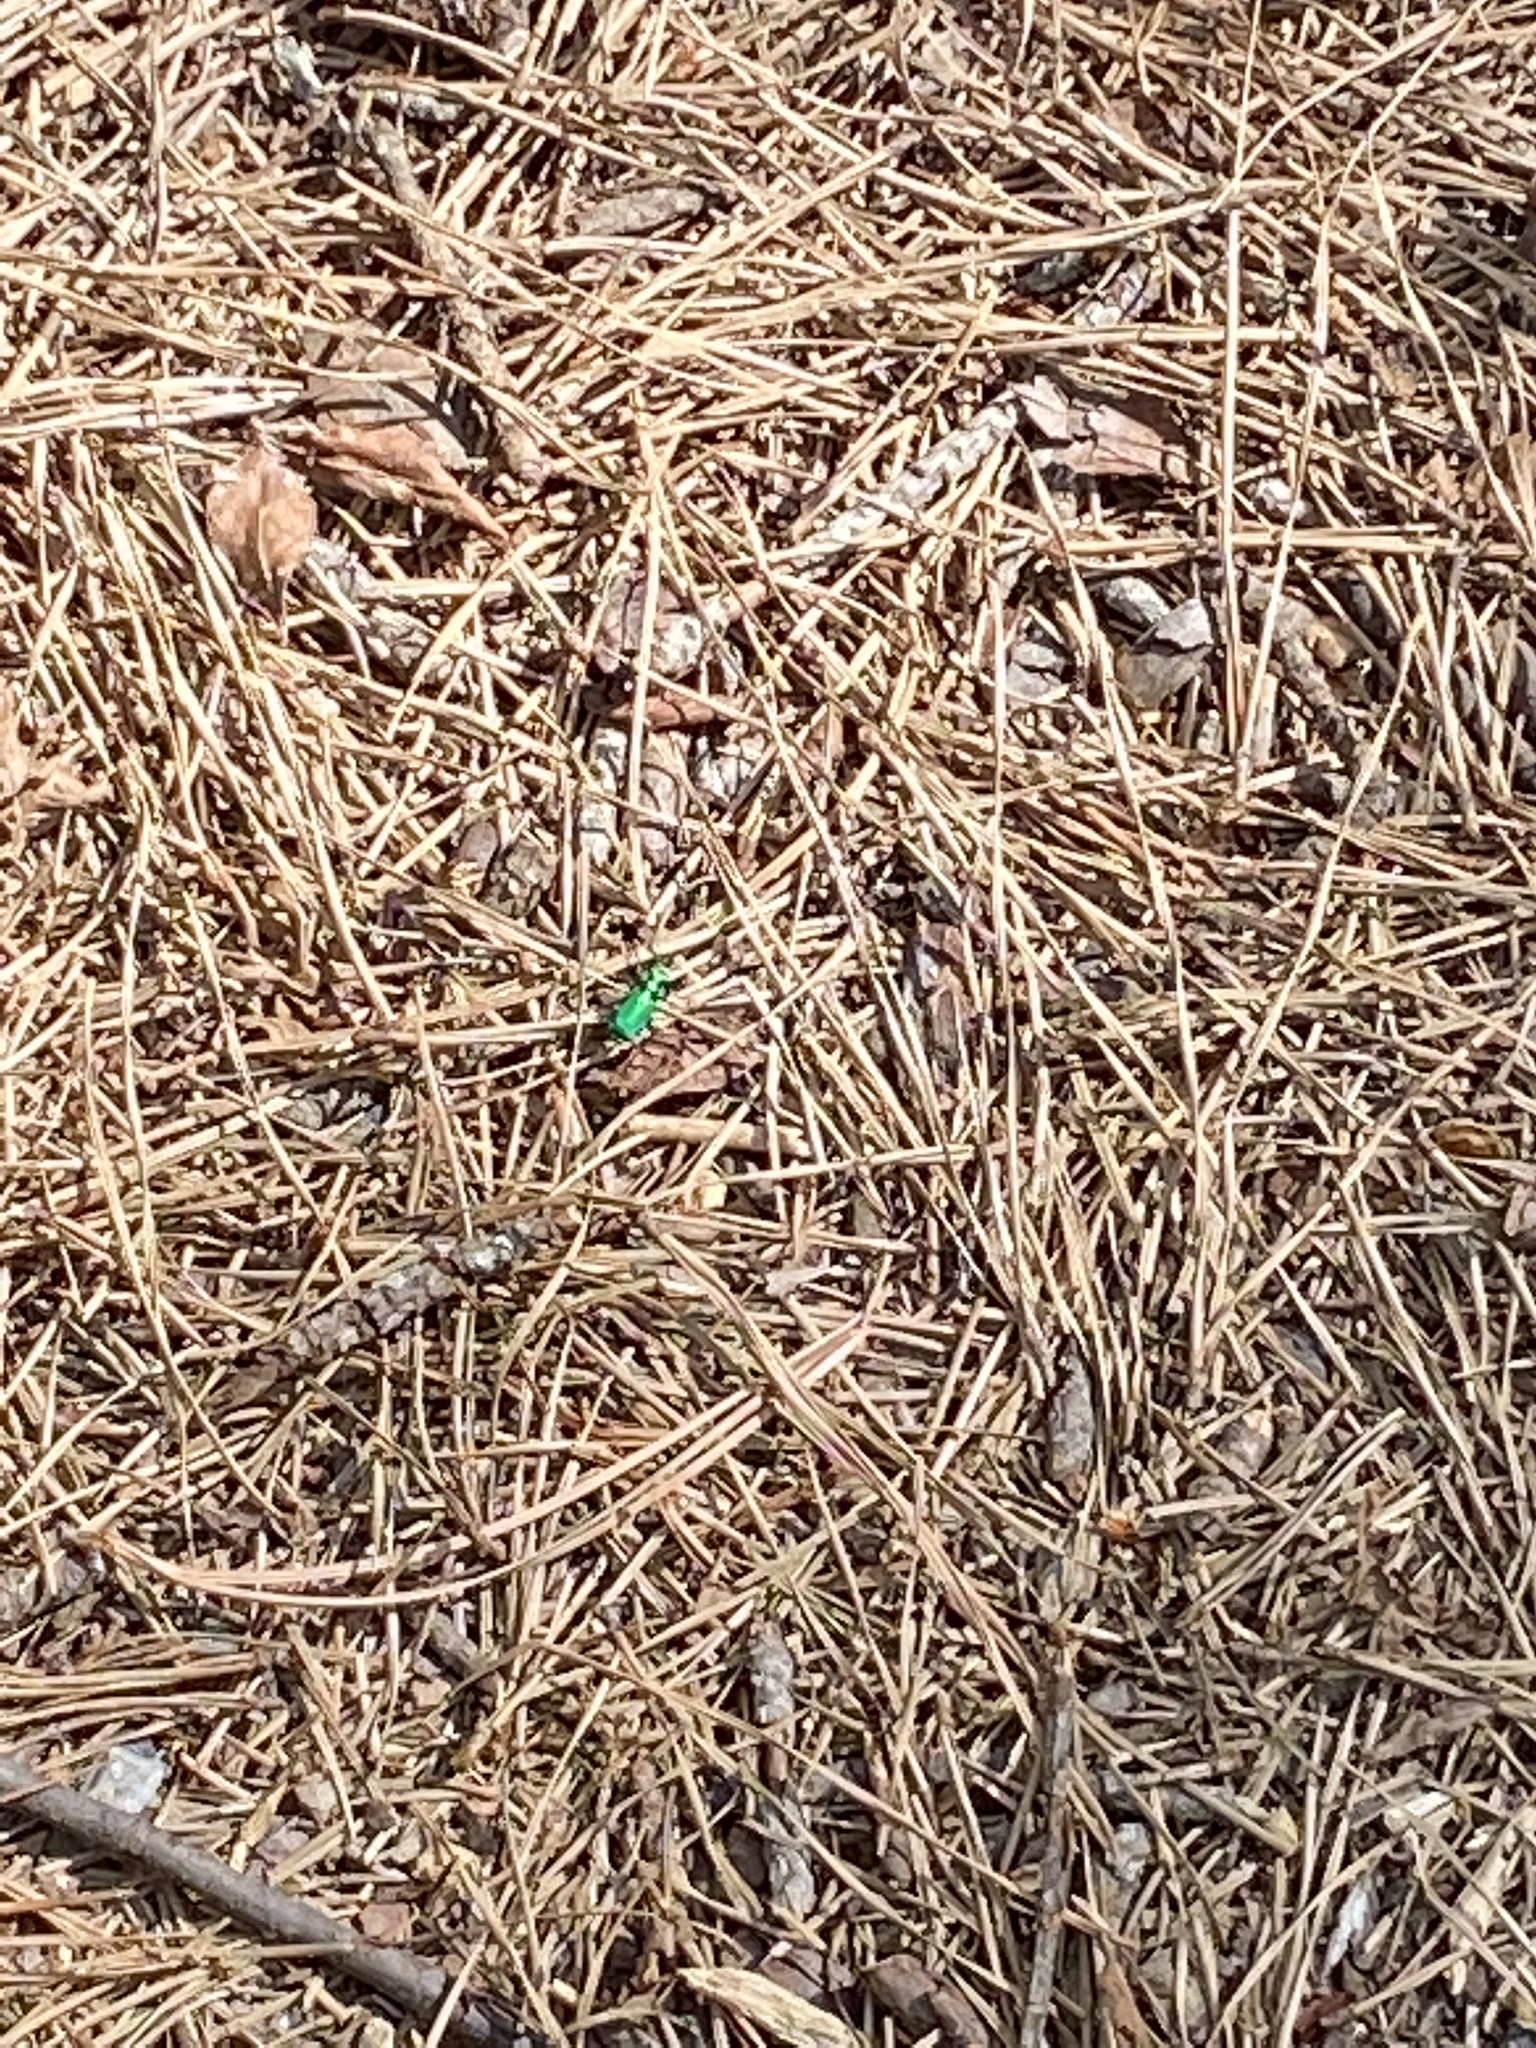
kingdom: Animalia
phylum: Arthropoda
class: Insecta
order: Coleoptera
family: Carabidae
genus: Cicindela
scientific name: Cicindela sexguttata
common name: Six-spotted tiger beetle
